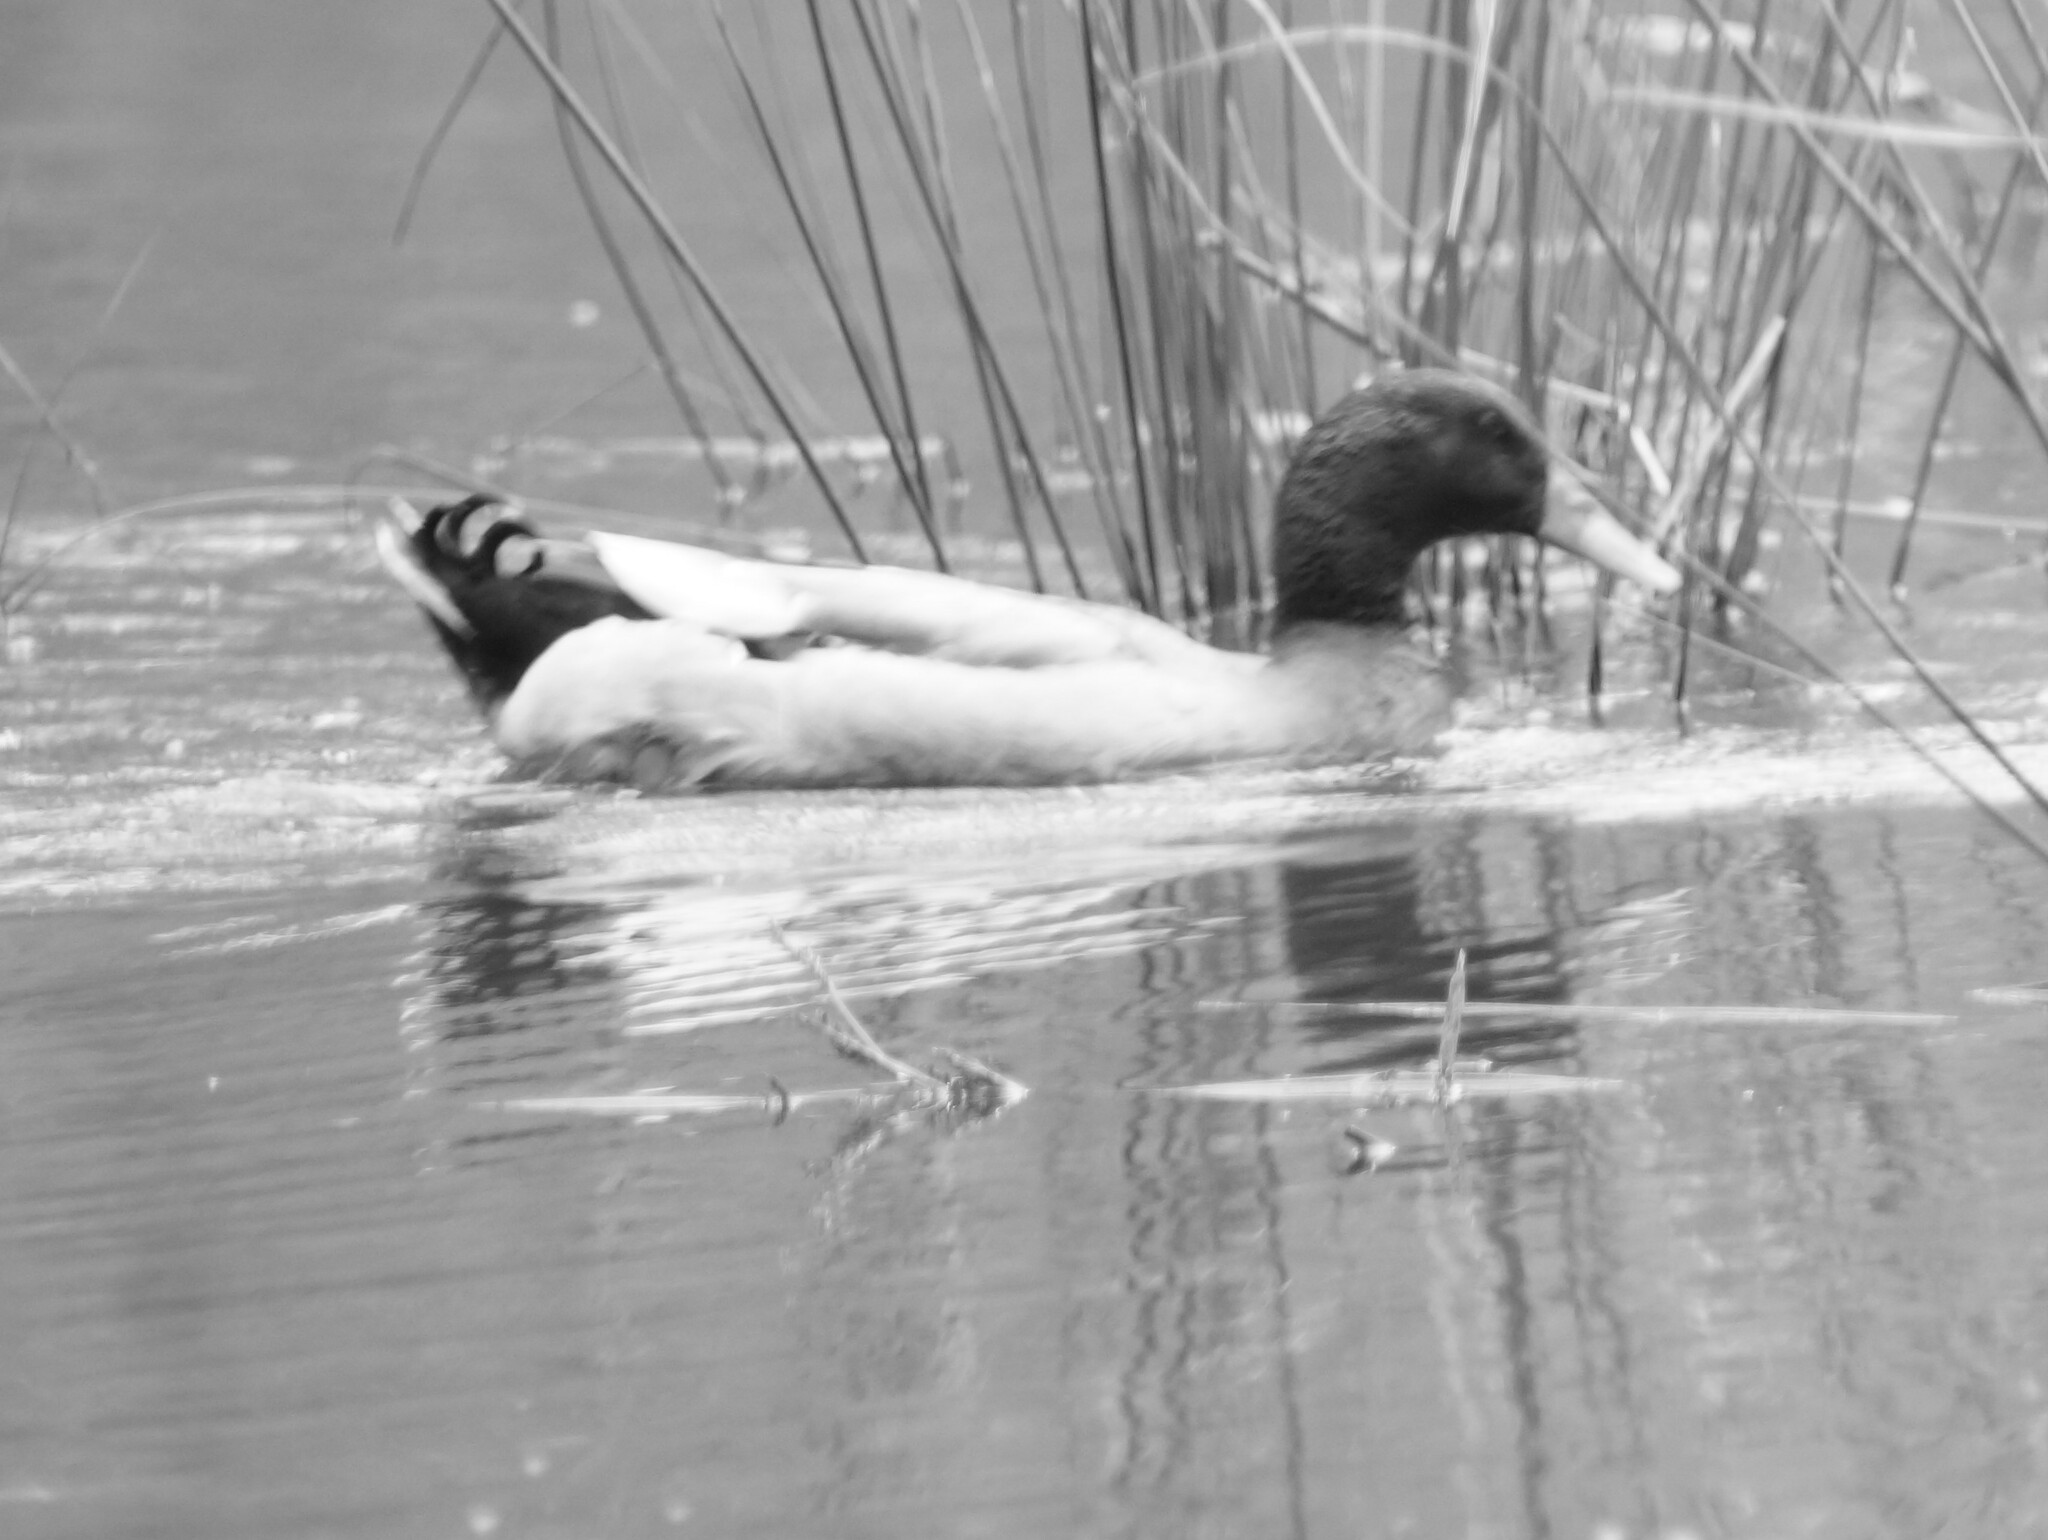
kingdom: Animalia
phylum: Chordata
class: Aves
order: Anseriformes
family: Anatidae
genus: Anas
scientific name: Anas platyrhynchos
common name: Mallard
